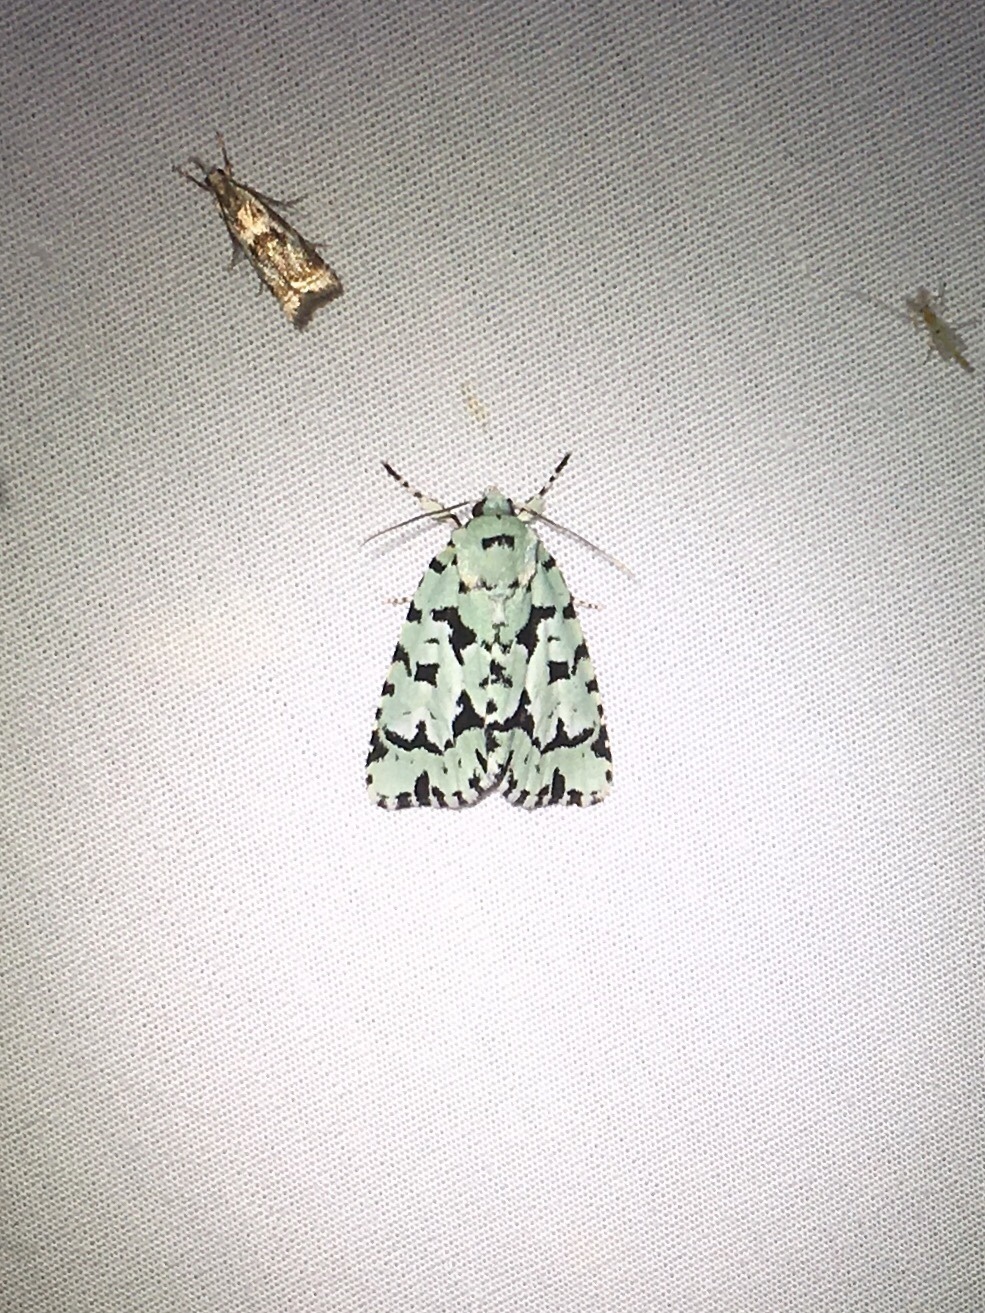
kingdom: Animalia
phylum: Arthropoda
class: Insecta
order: Lepidoptera
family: Noctuidae
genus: Acronicta
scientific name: Acronicta fallax
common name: Green marvel
